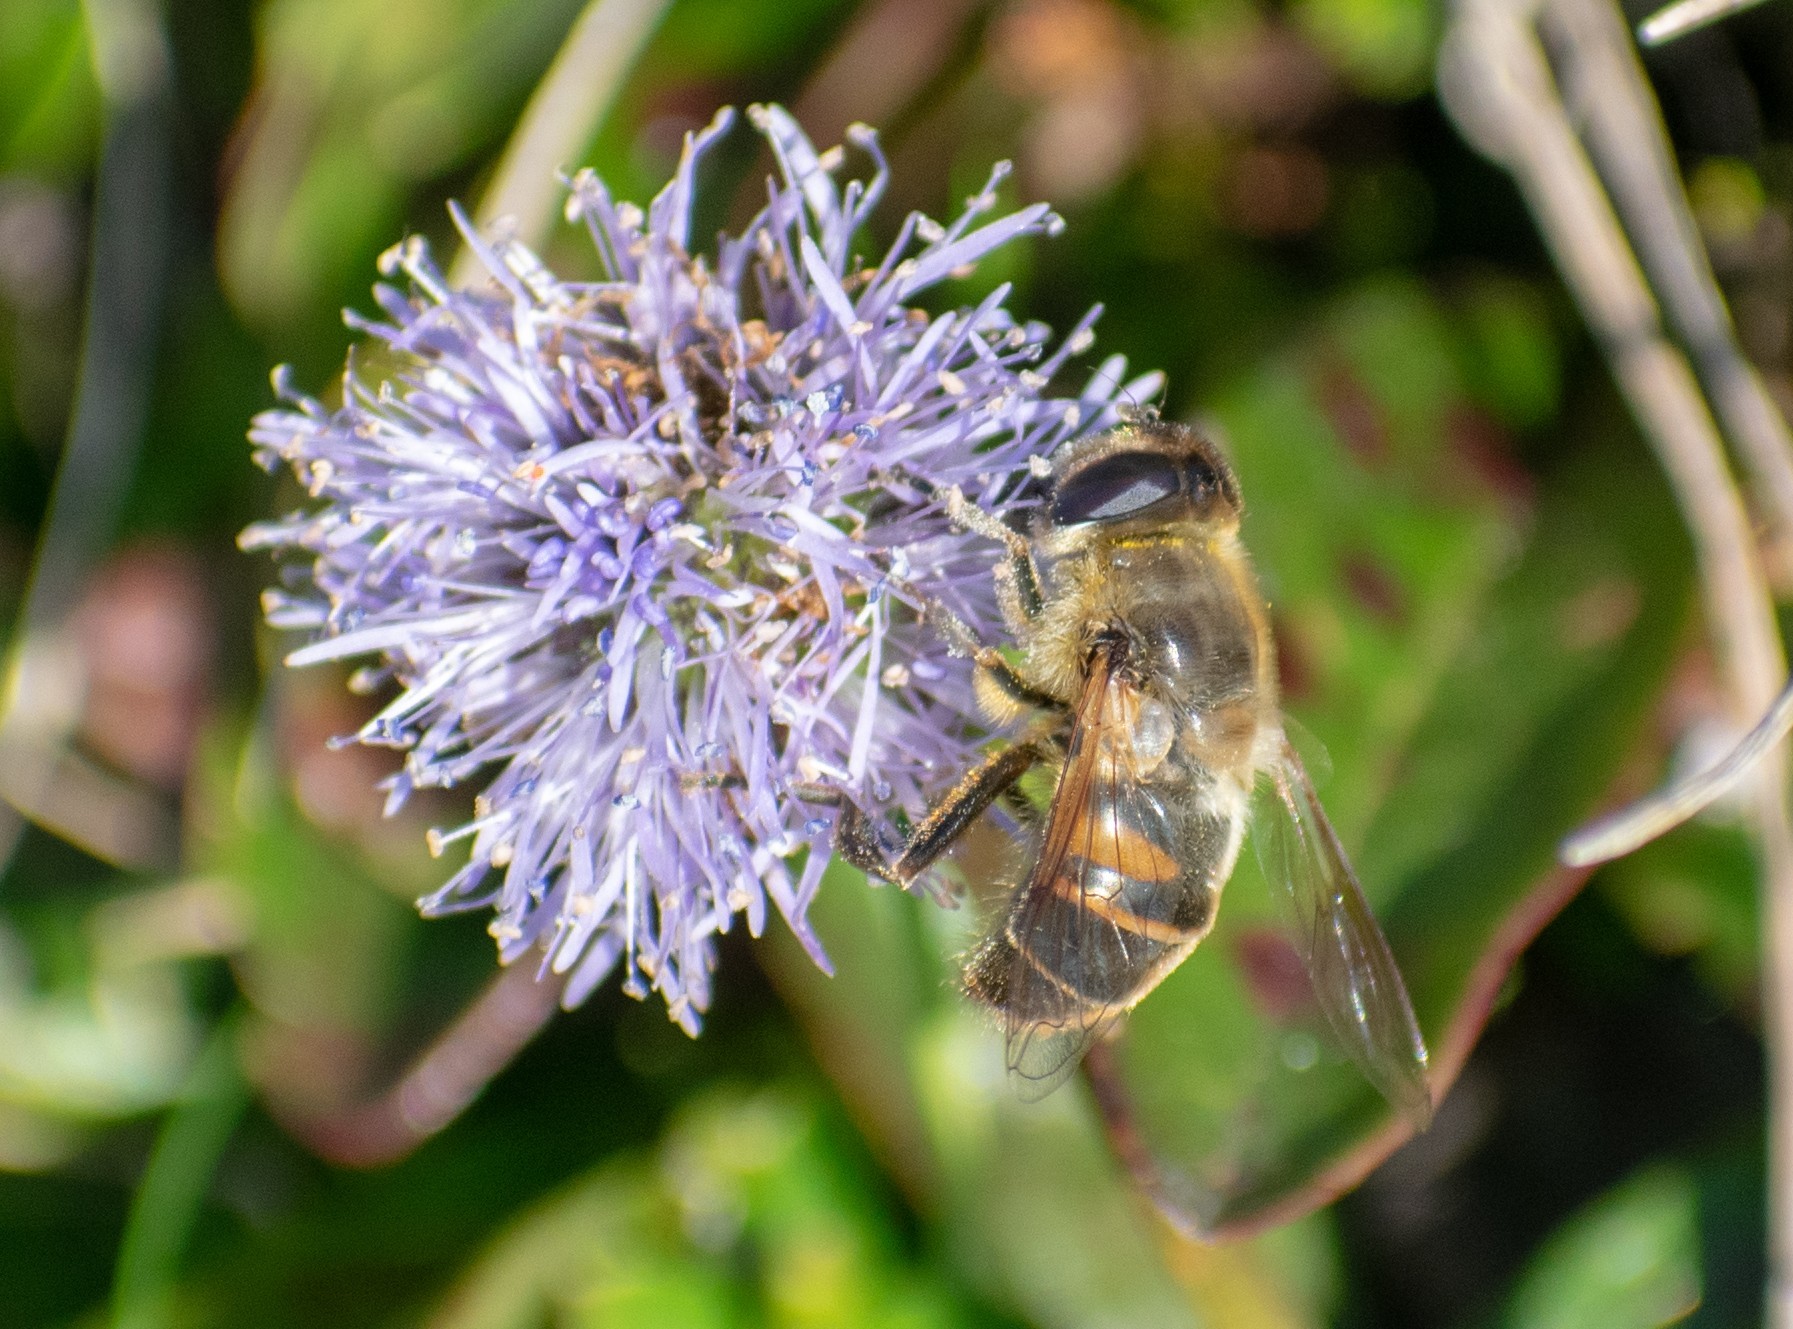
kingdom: Animalia
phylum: Arthropoda
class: Insecta
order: Diptera
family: Syrphidae
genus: Eristalis
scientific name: Eristalis tenax
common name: Drone fly
